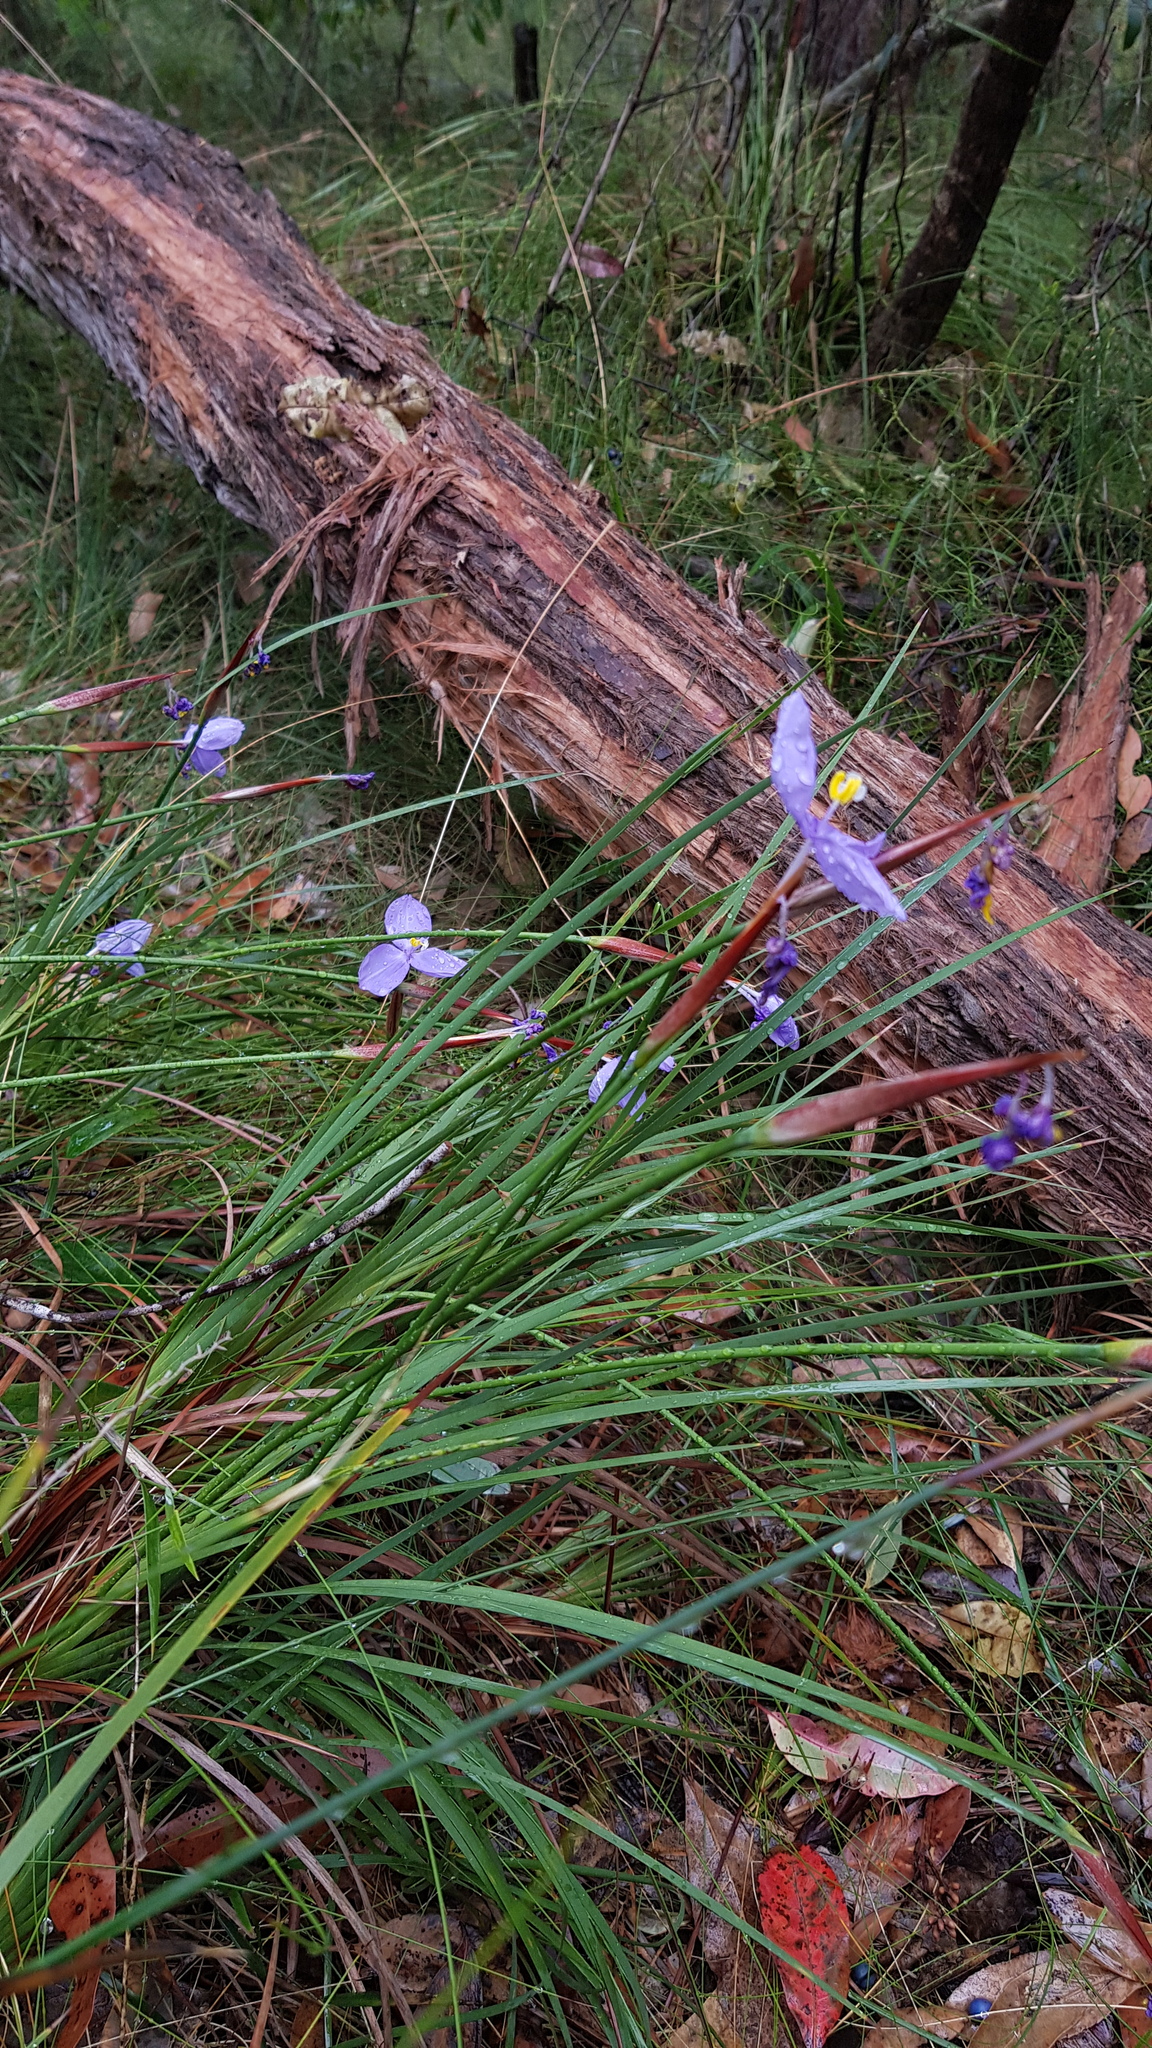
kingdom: Plantae
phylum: Tracheophyta
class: Liliopsida
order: Asparagales
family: Iridaceae
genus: Patersonia
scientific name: Patersonia glabrata
